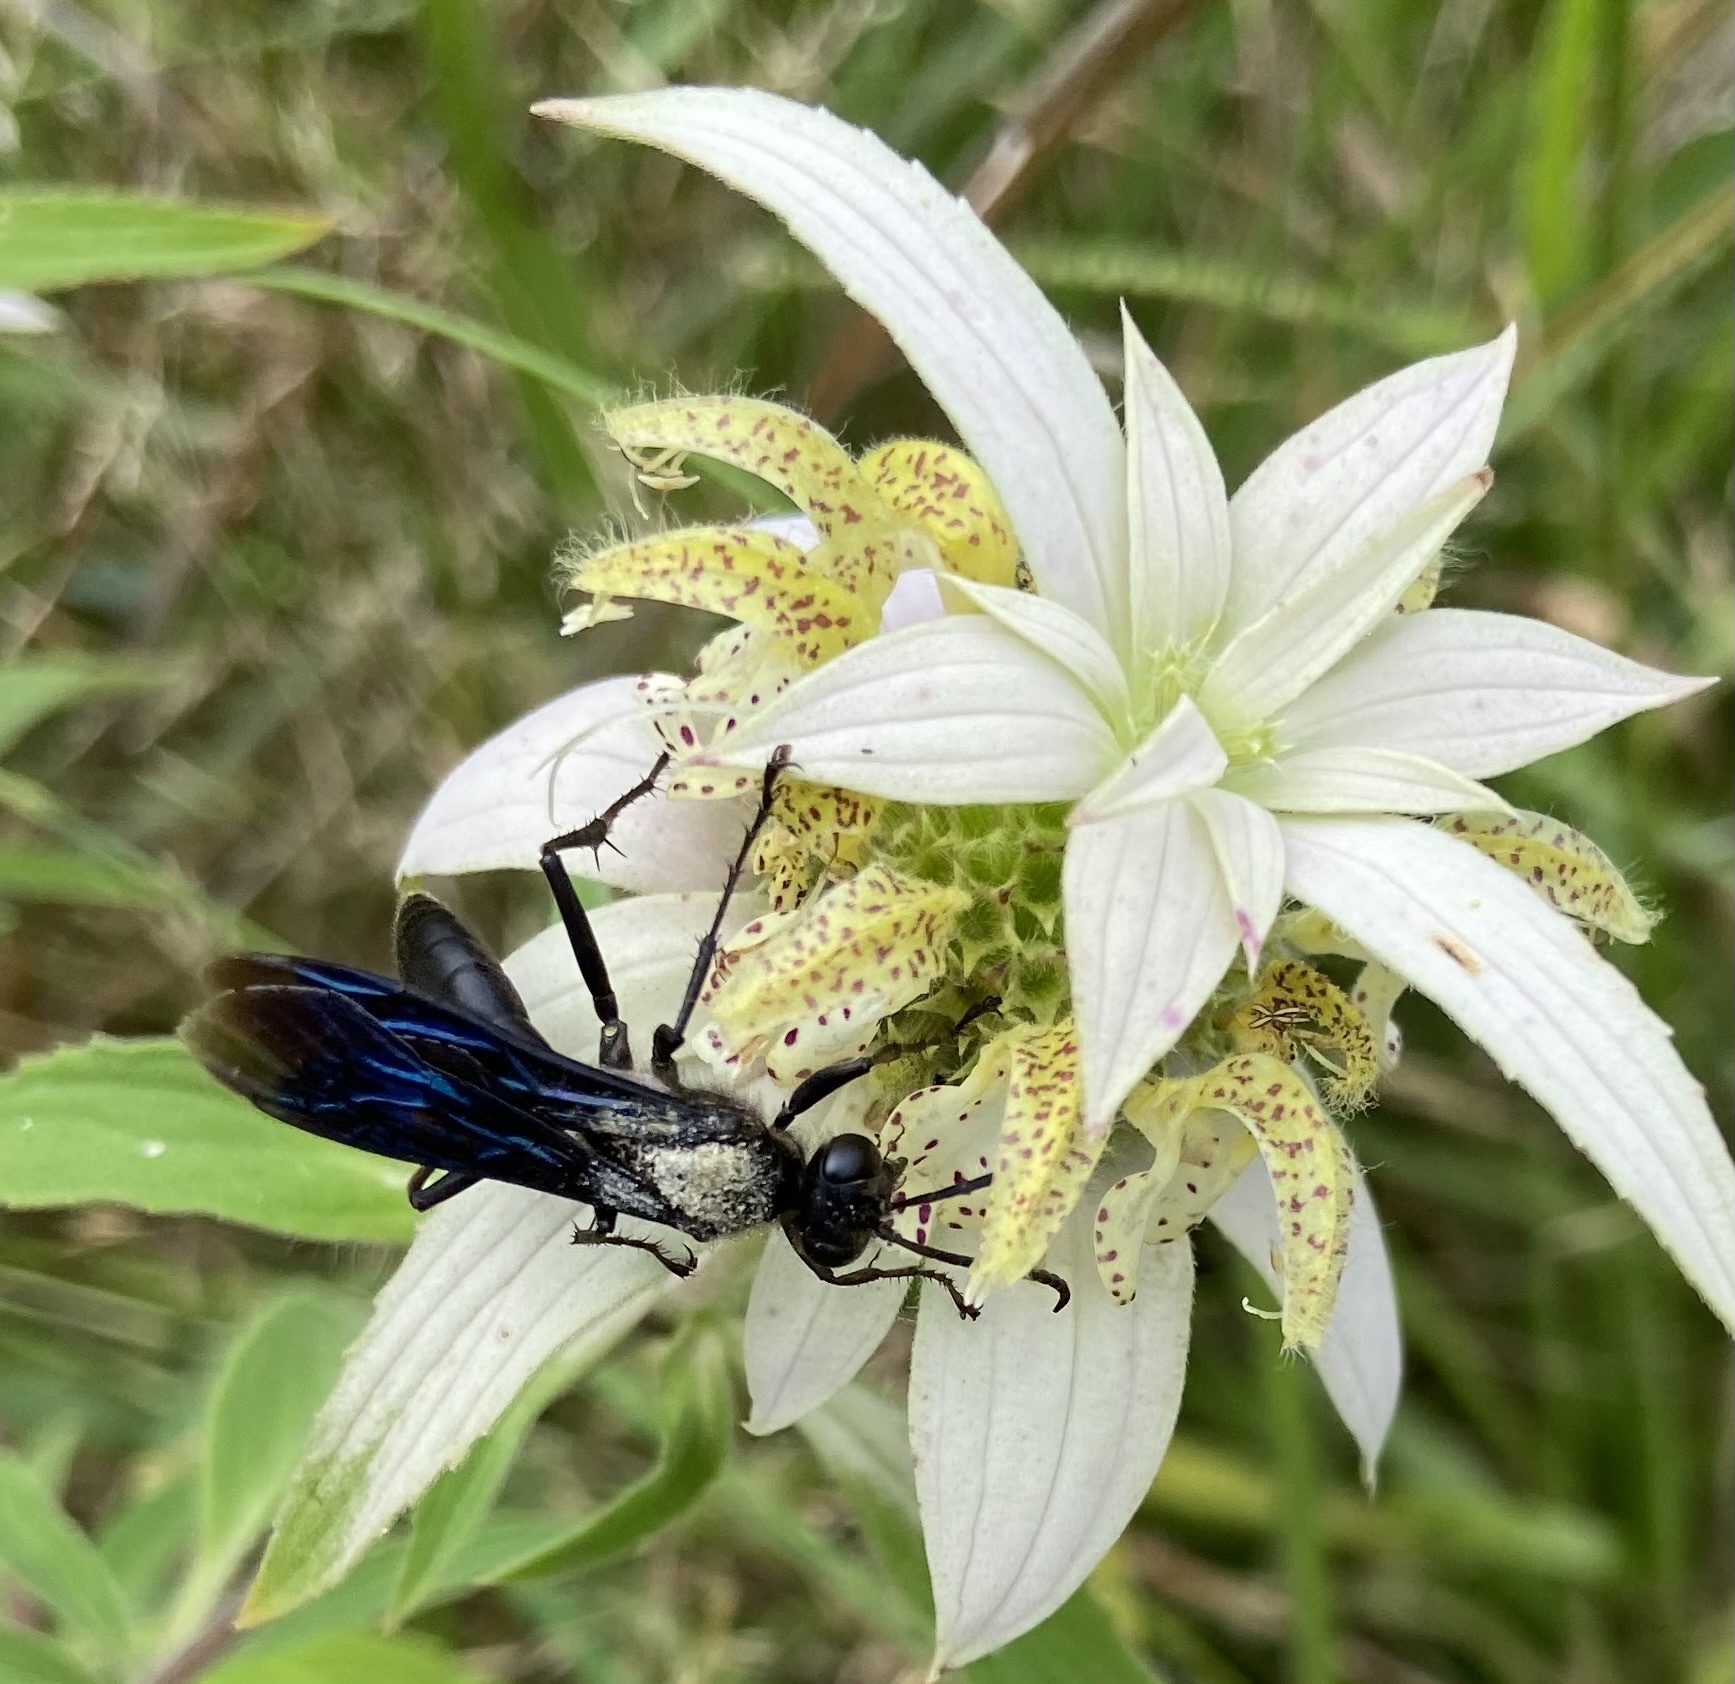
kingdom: Animalia
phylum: Arthropoda
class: Insecta
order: Hymenoptera
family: Sphecidae
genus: Sphex
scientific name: Sphex pensylvanicus
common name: Great black digger wasp
